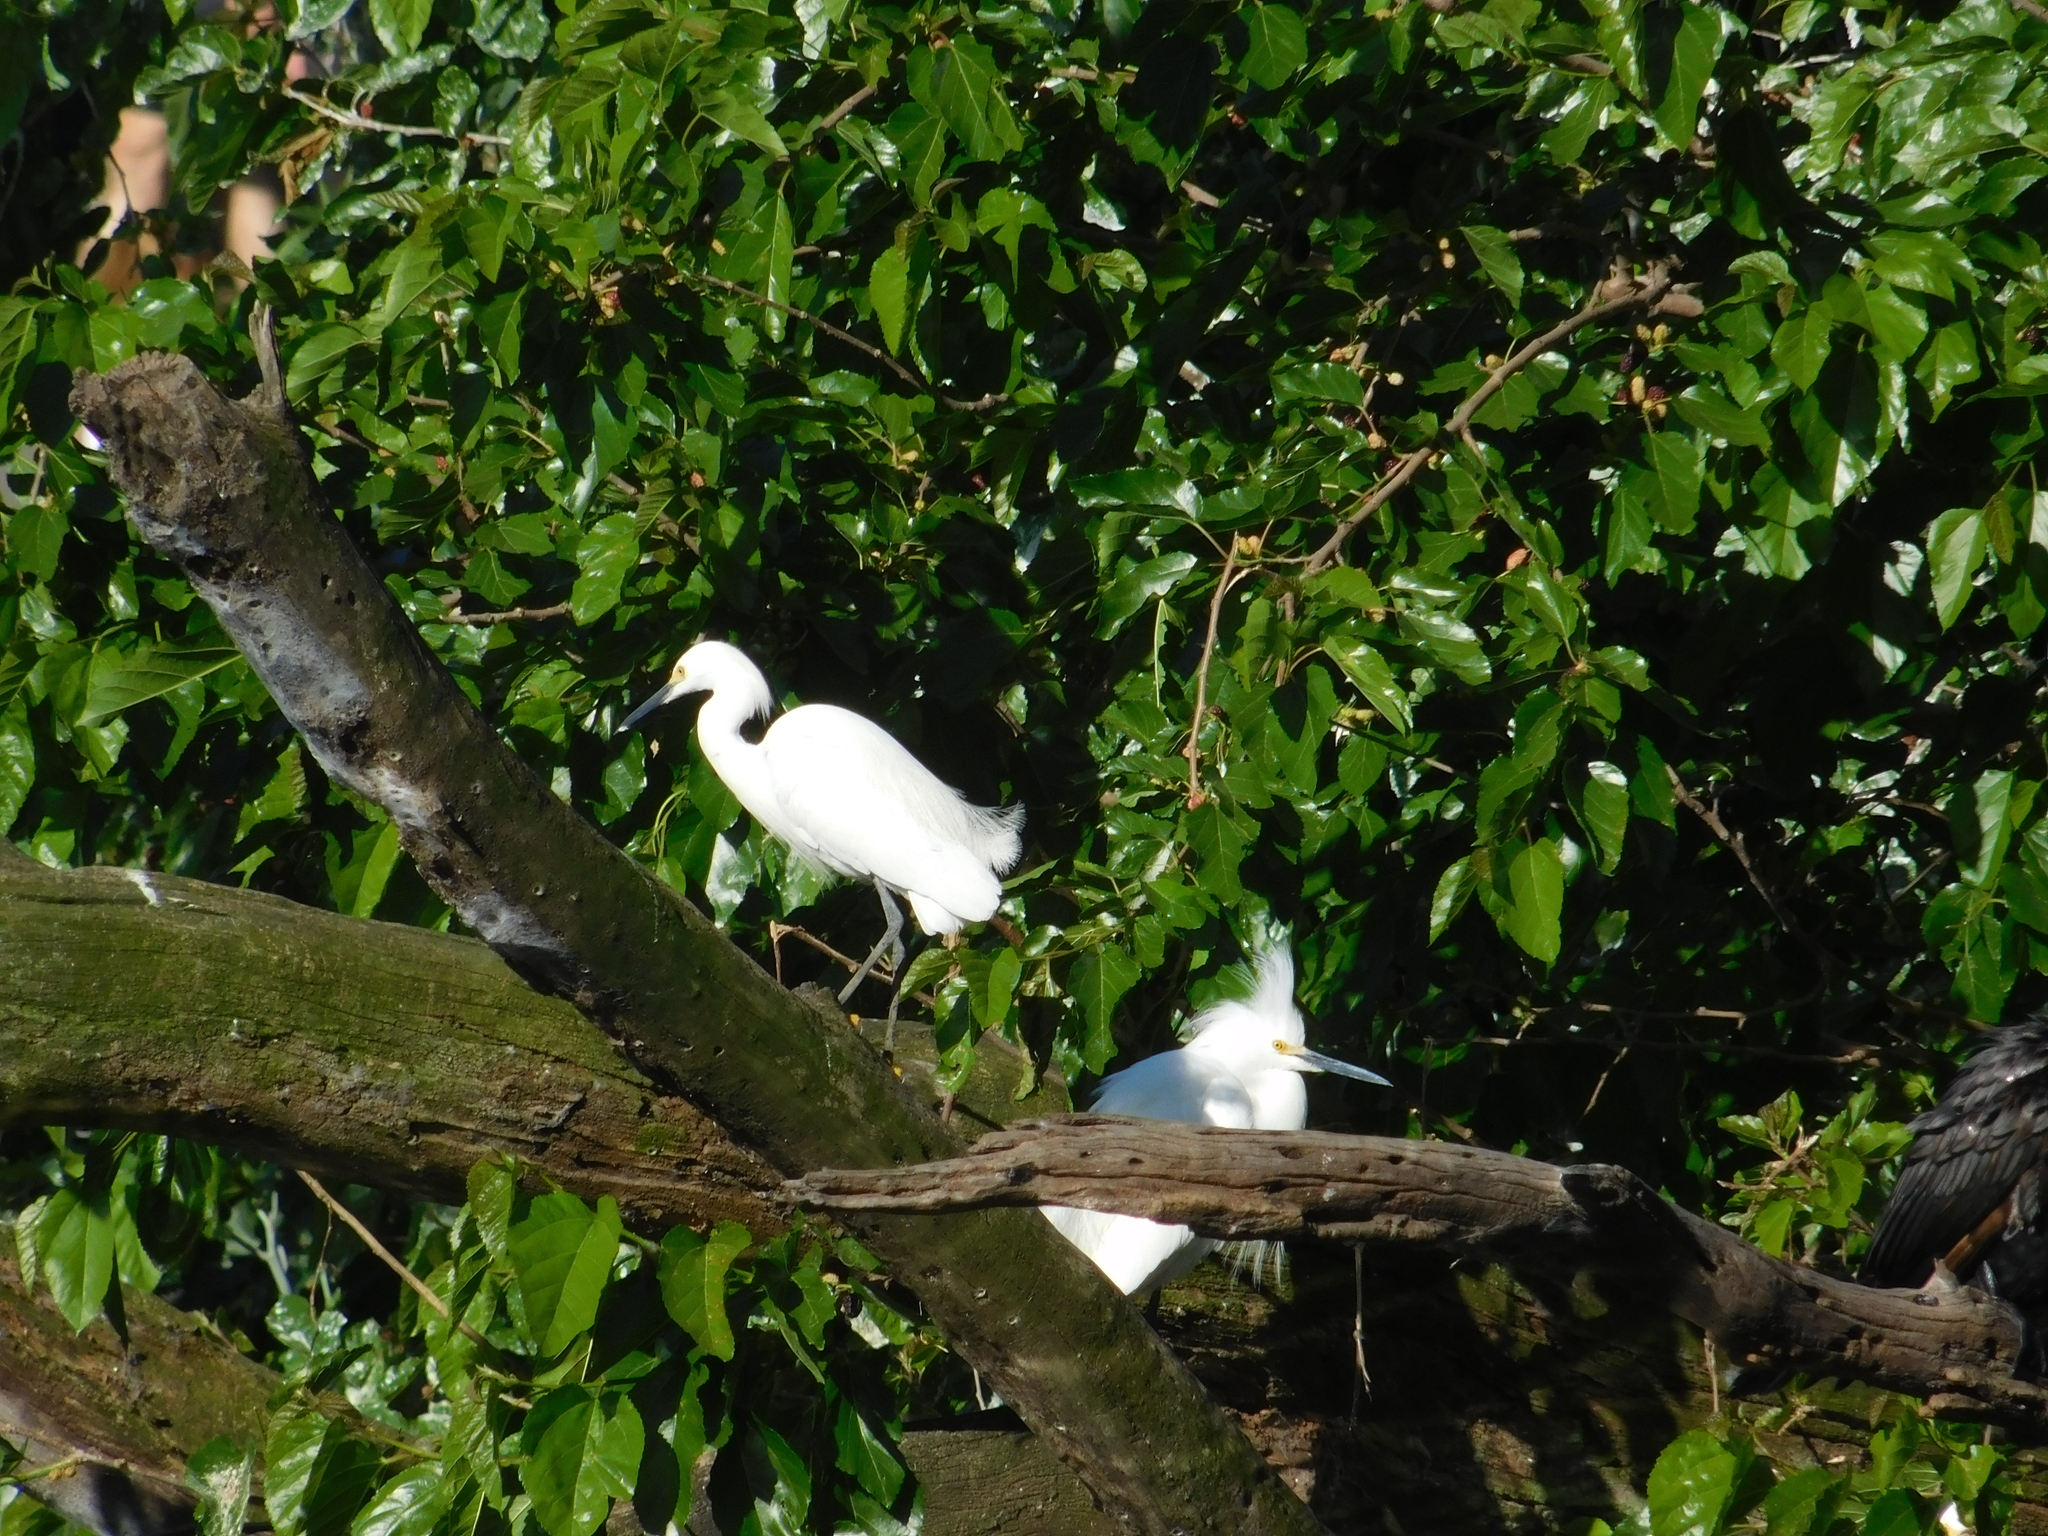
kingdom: Animalia
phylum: Chordata
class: Aves
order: Pelecaniformes
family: Ardeidae
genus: Egretta
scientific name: Egretta thula
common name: Snowy egret
